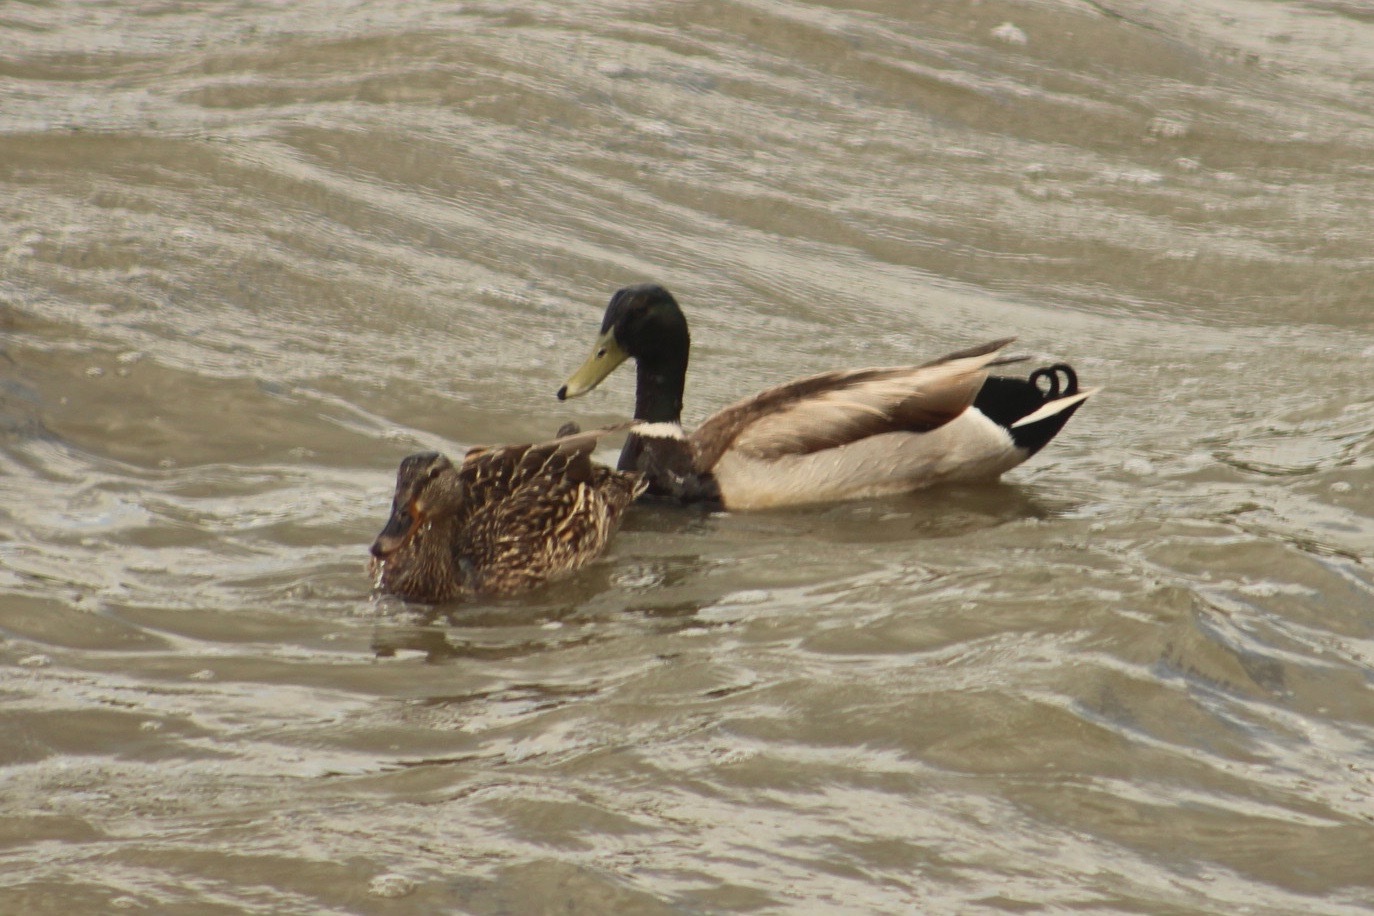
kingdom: Animalia
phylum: Chordata
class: Aves
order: Anseriformes
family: Anatidae
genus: Anas
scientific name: Anas platyrhynchos
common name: Mallard
